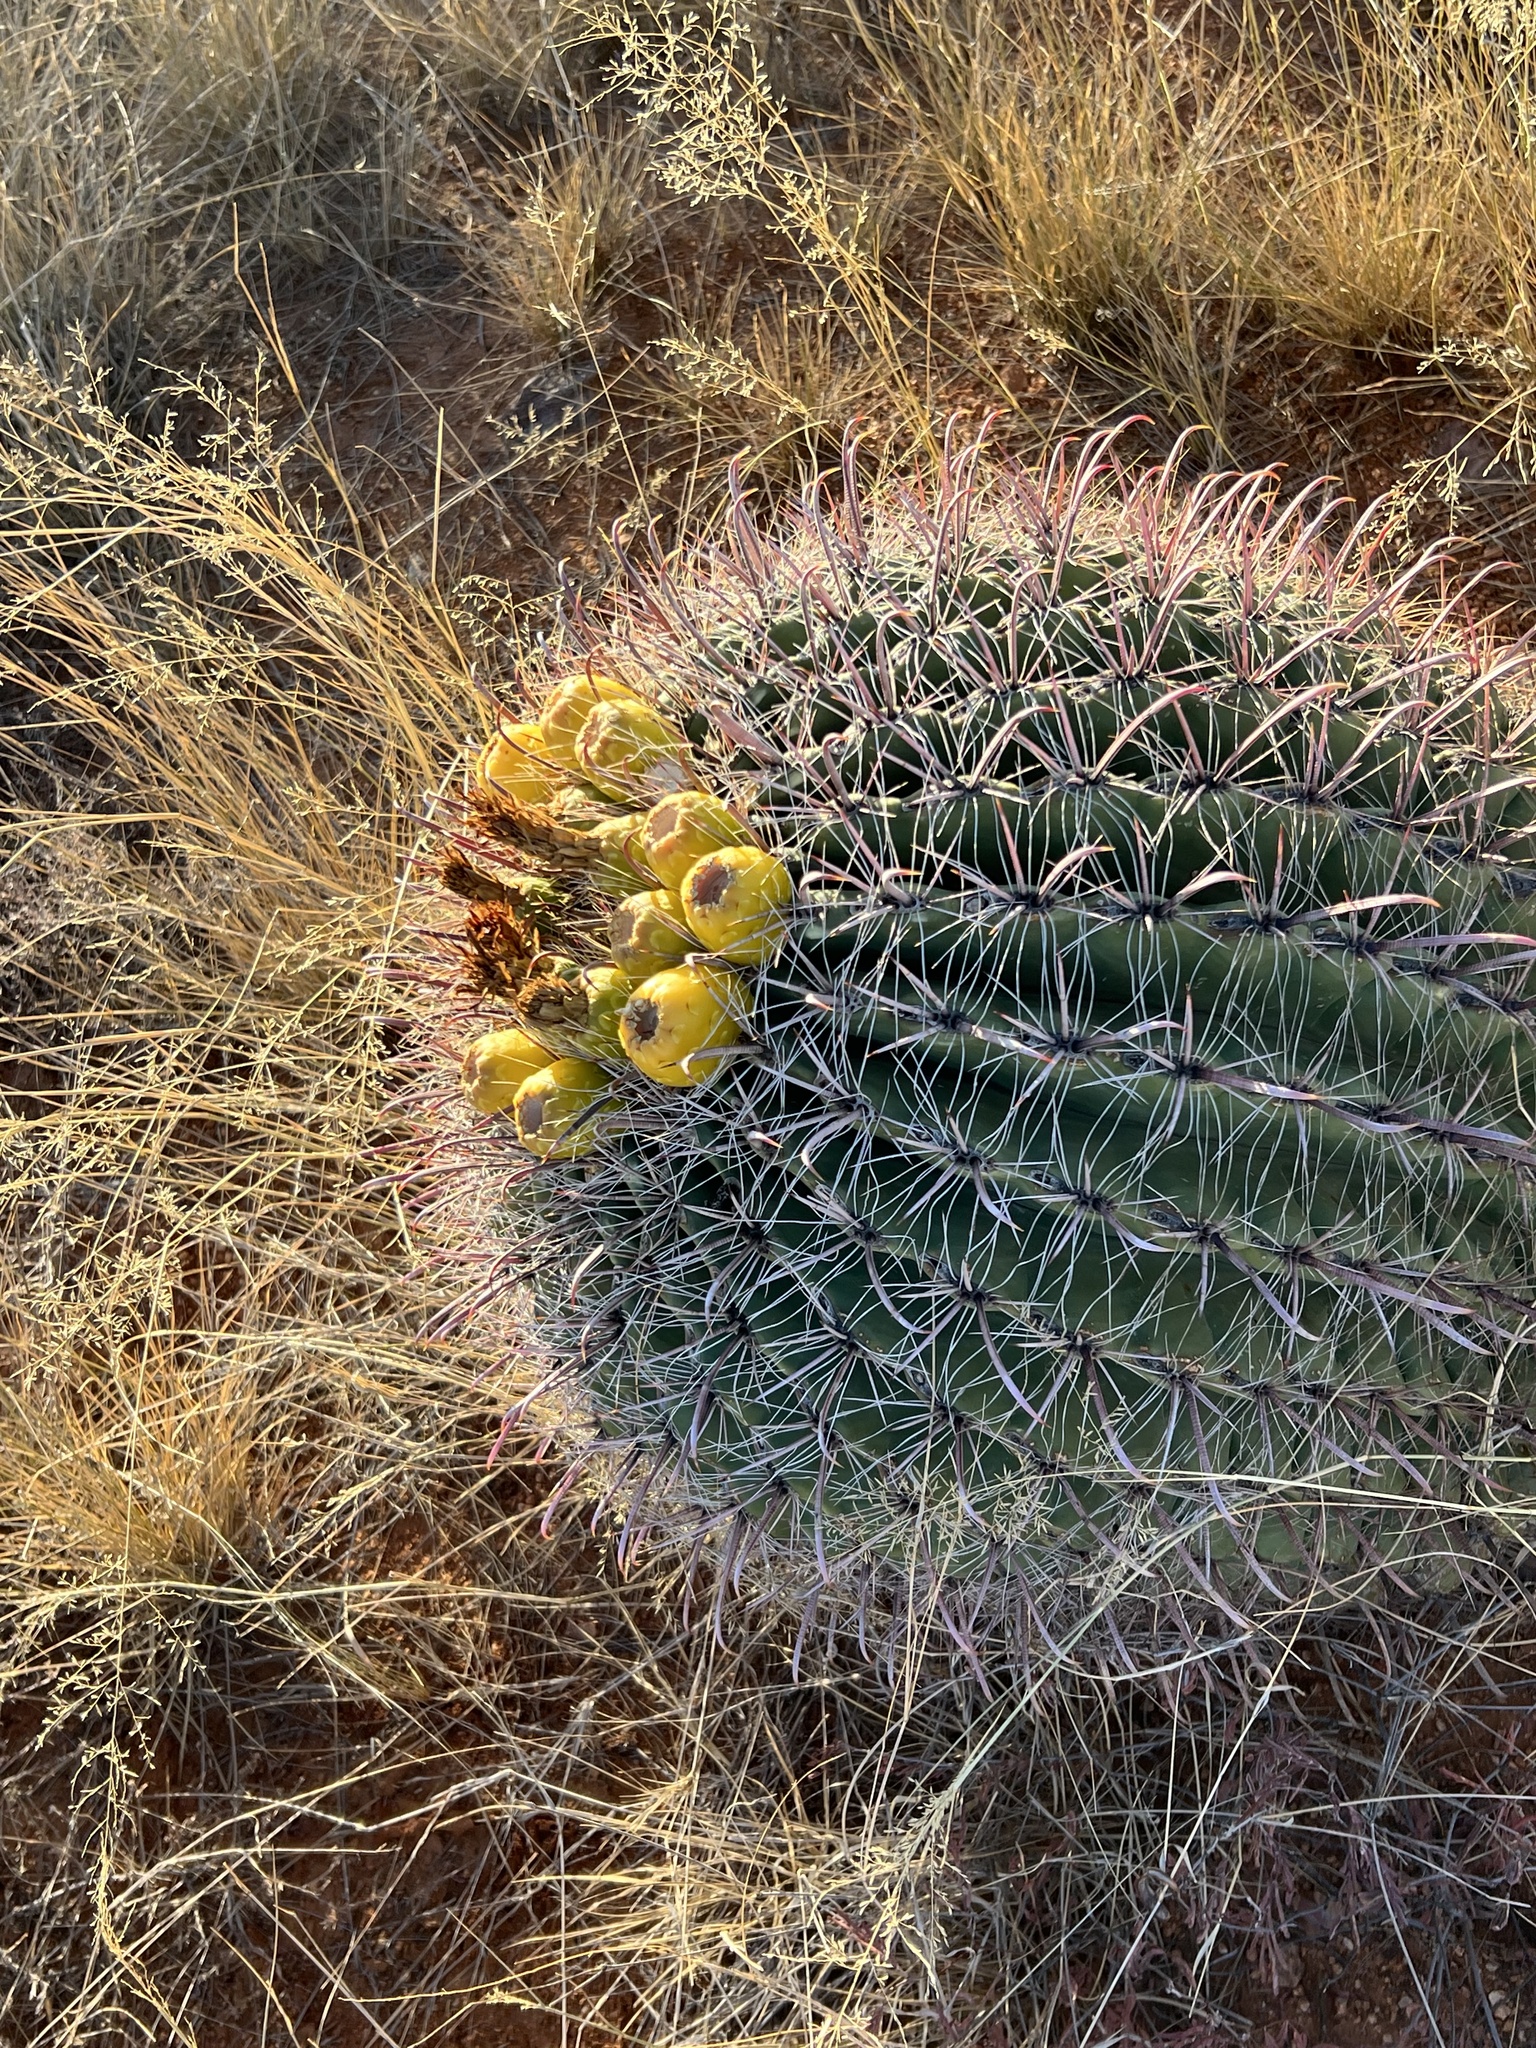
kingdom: Plantae
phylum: Tracheophyta
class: Magnoliopsida
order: Caryophyllales
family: Cactaceae
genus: Ferocactus
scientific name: Ferocactus wislizeni
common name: Candy barrel cactus
